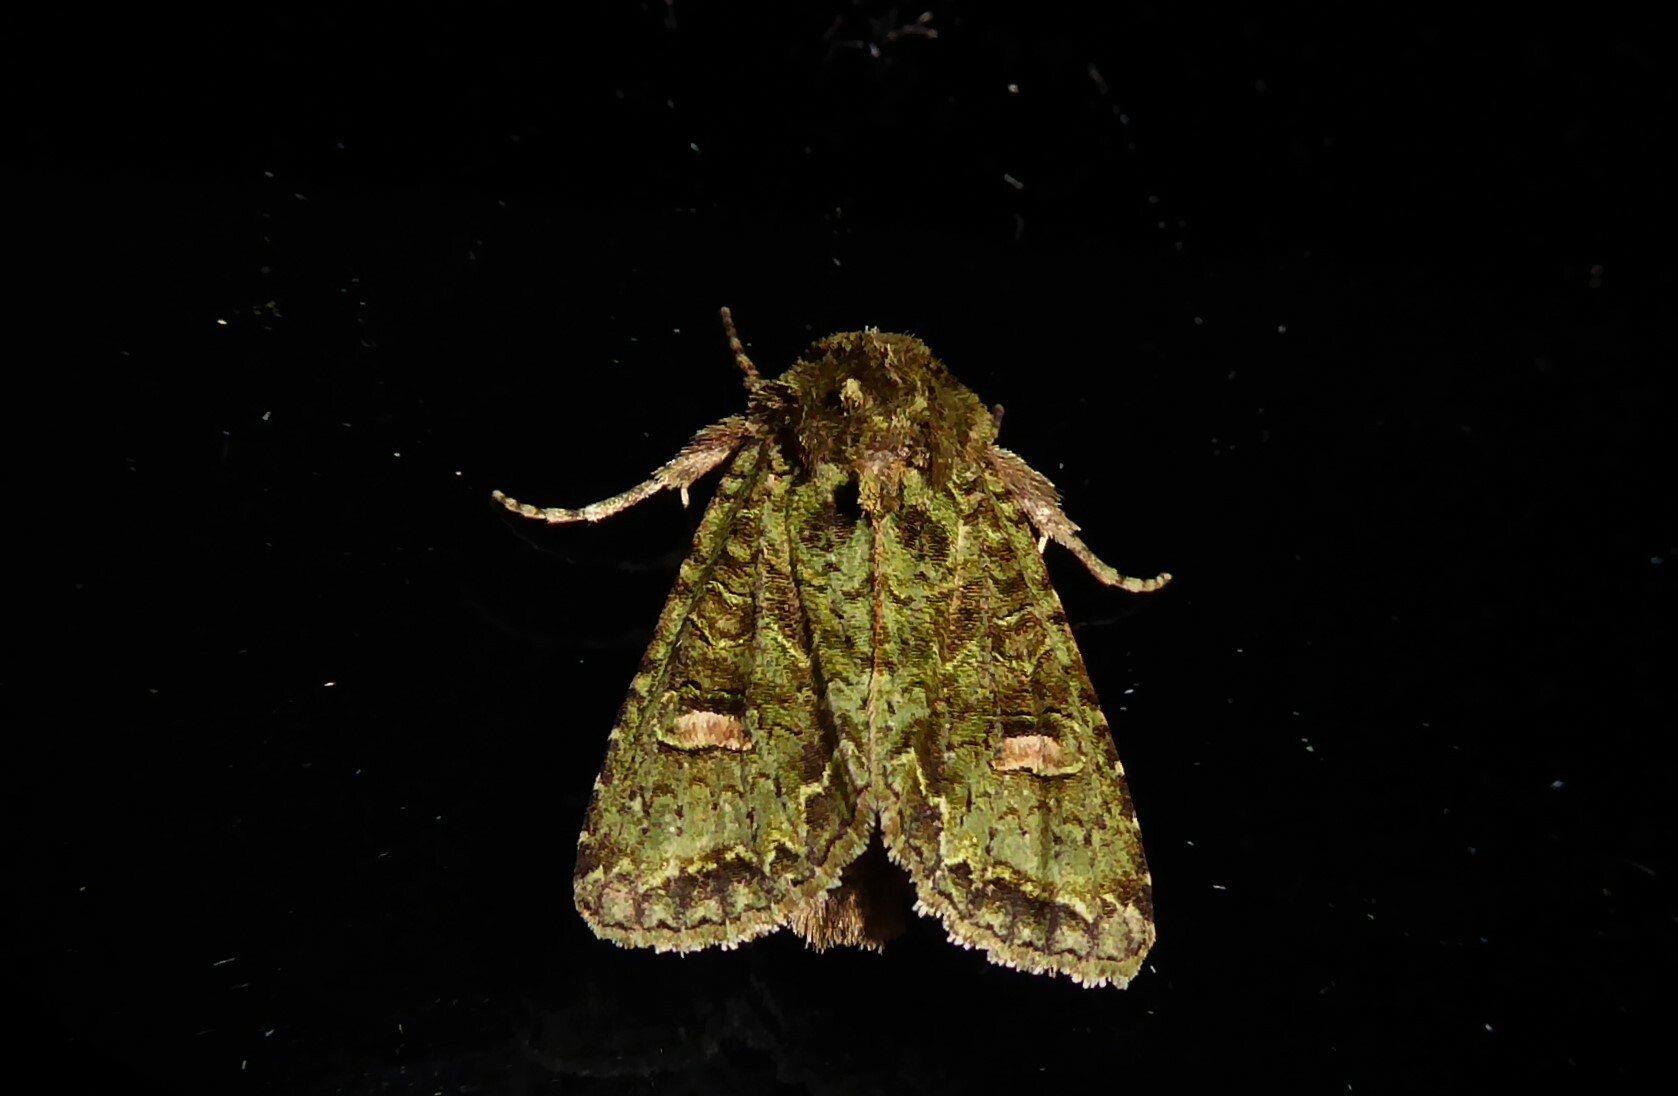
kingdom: Animalia
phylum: Arthropoda
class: Insecta
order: Lepidoptera
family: Noctuidae
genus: Ichneutica
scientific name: Ichneutica
